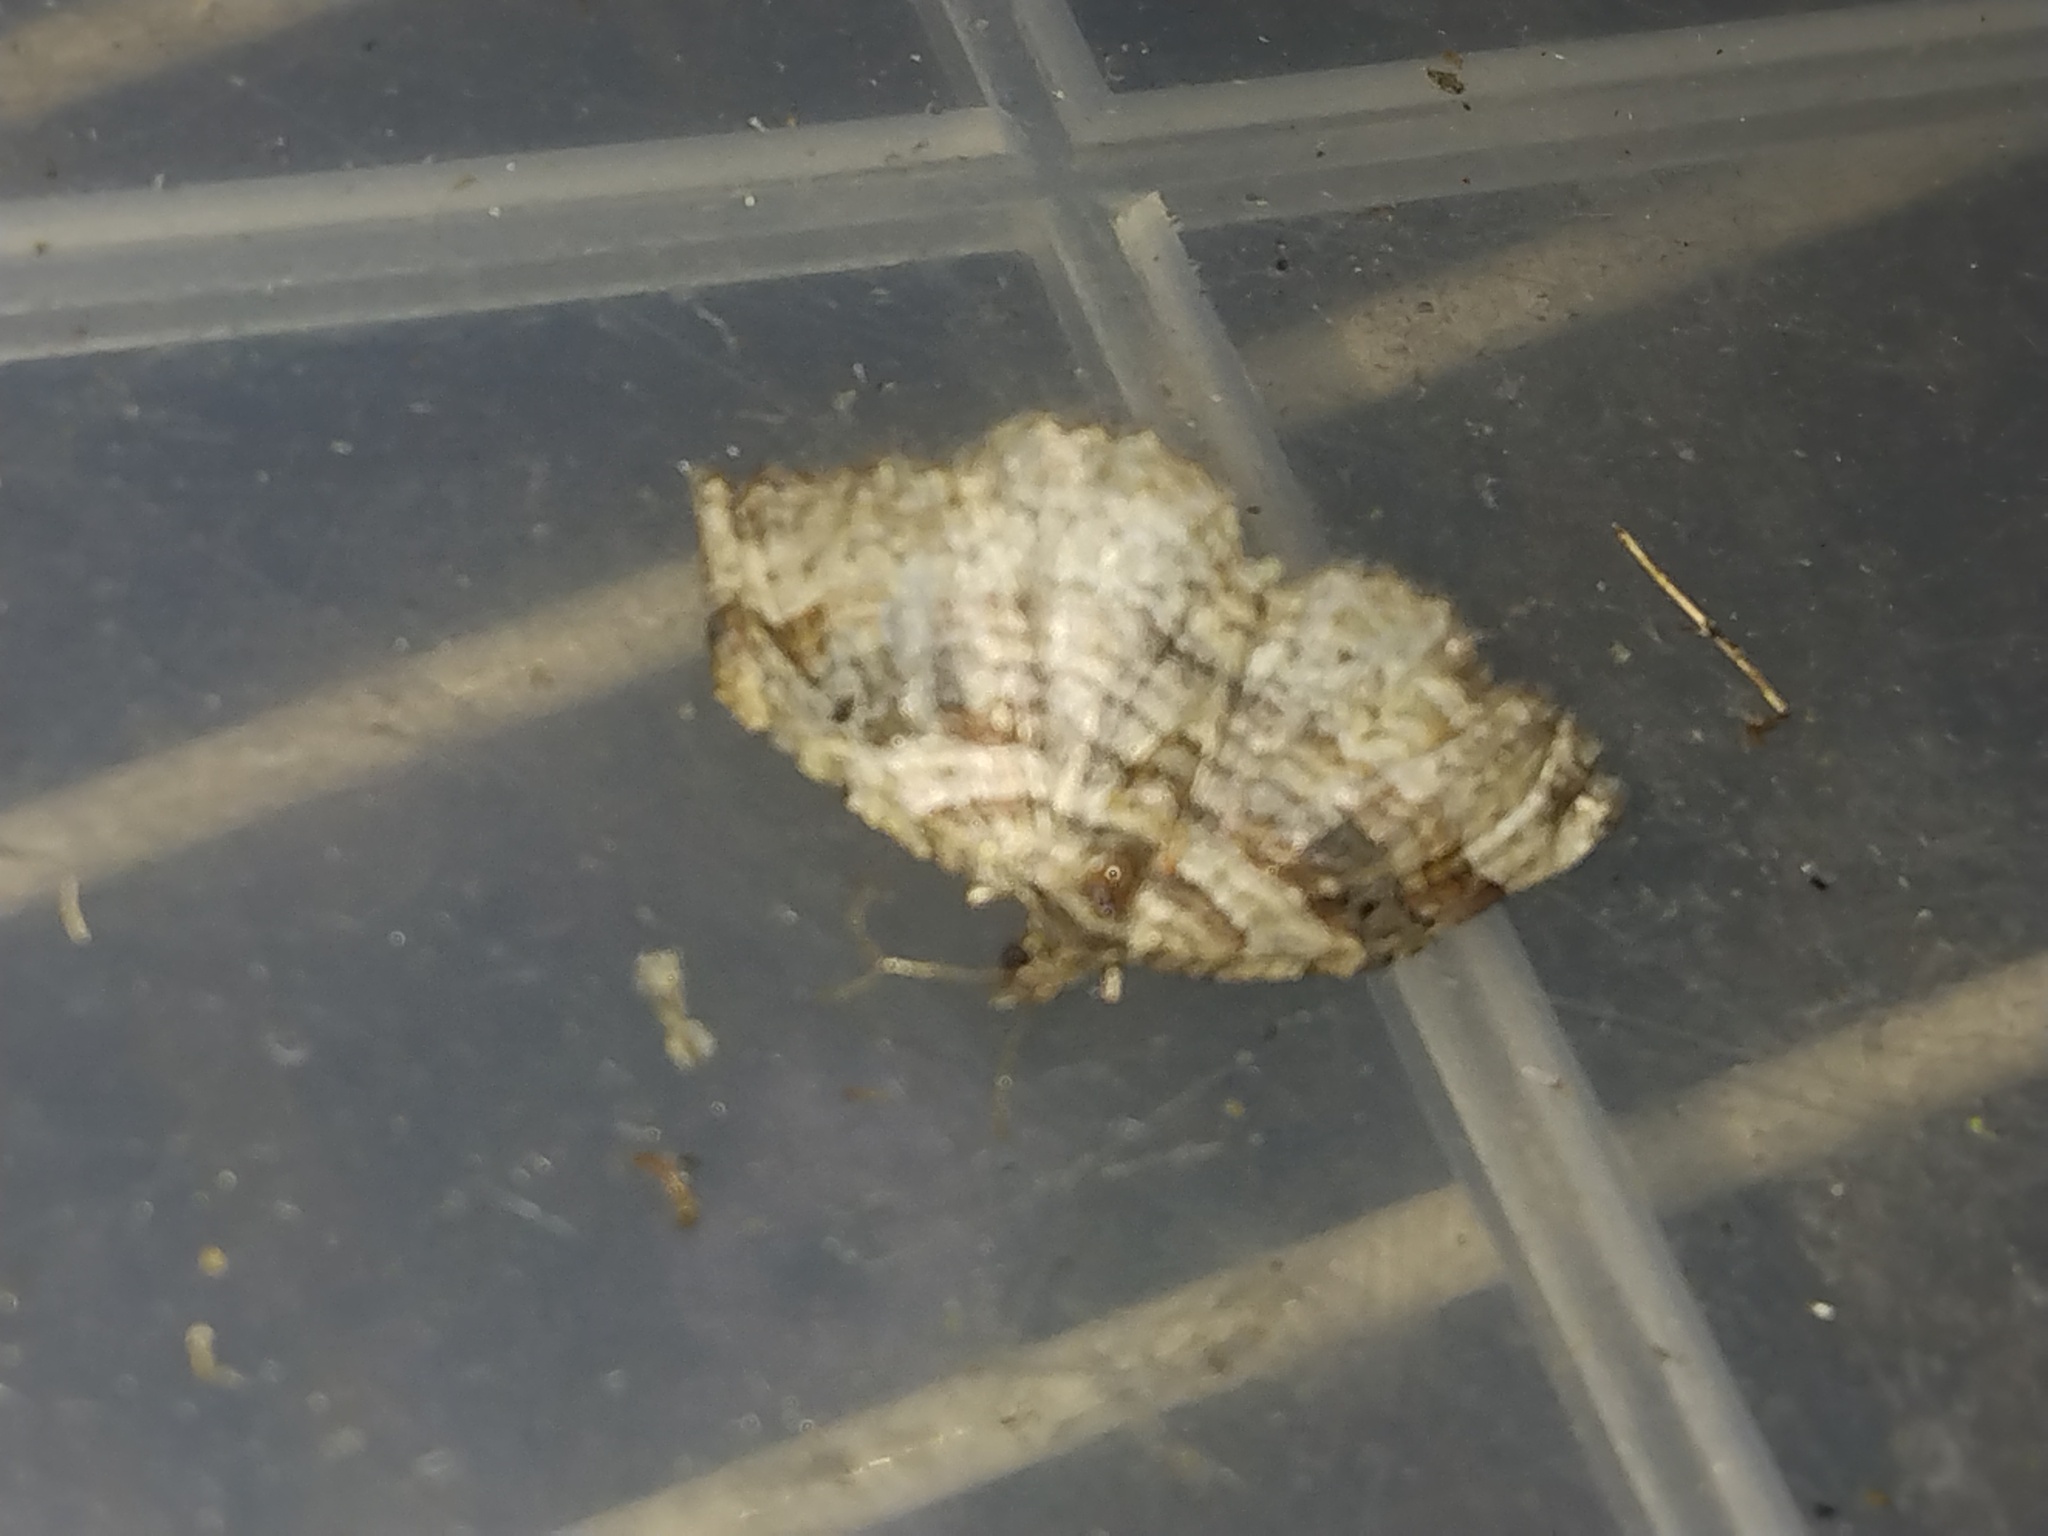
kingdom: Animalia
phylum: Arthropoda
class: Insecta
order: Lepidoptera
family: Geometridae
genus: Costaconvexa
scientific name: Costaconvexa centrostrigaria
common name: Bent-line carpet
